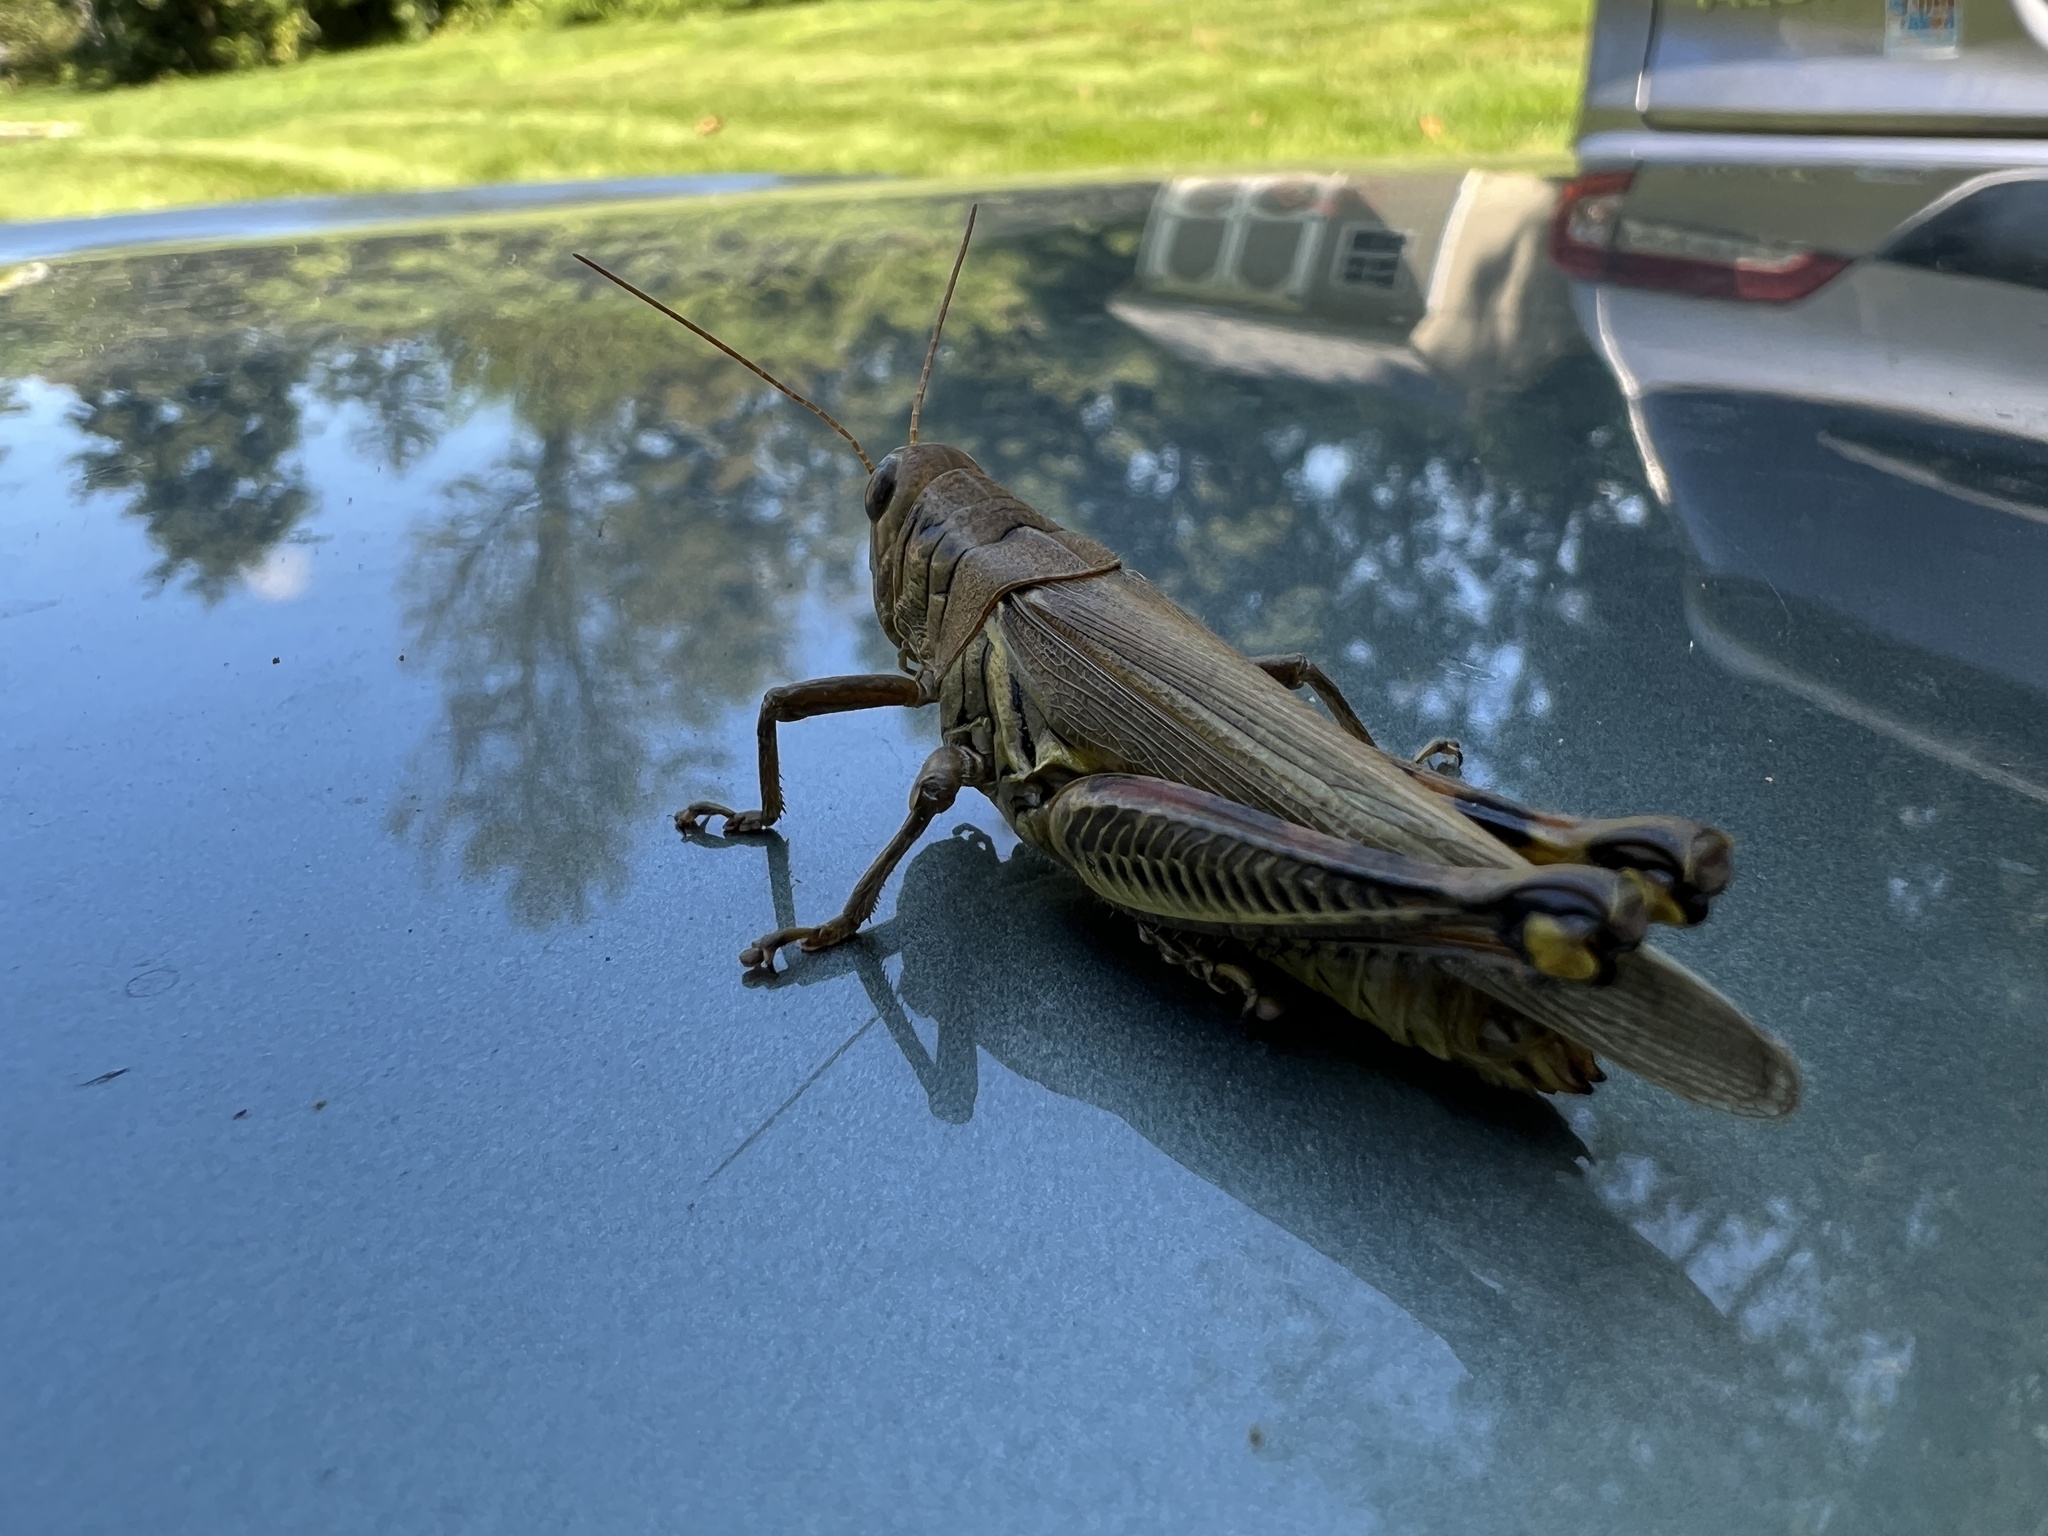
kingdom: Animalia
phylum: Arthropoda
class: Insecta
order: Orthoptera
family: Acrididae
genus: Melanoplus
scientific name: Melanoplus differentialis
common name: Differential grasshopper
